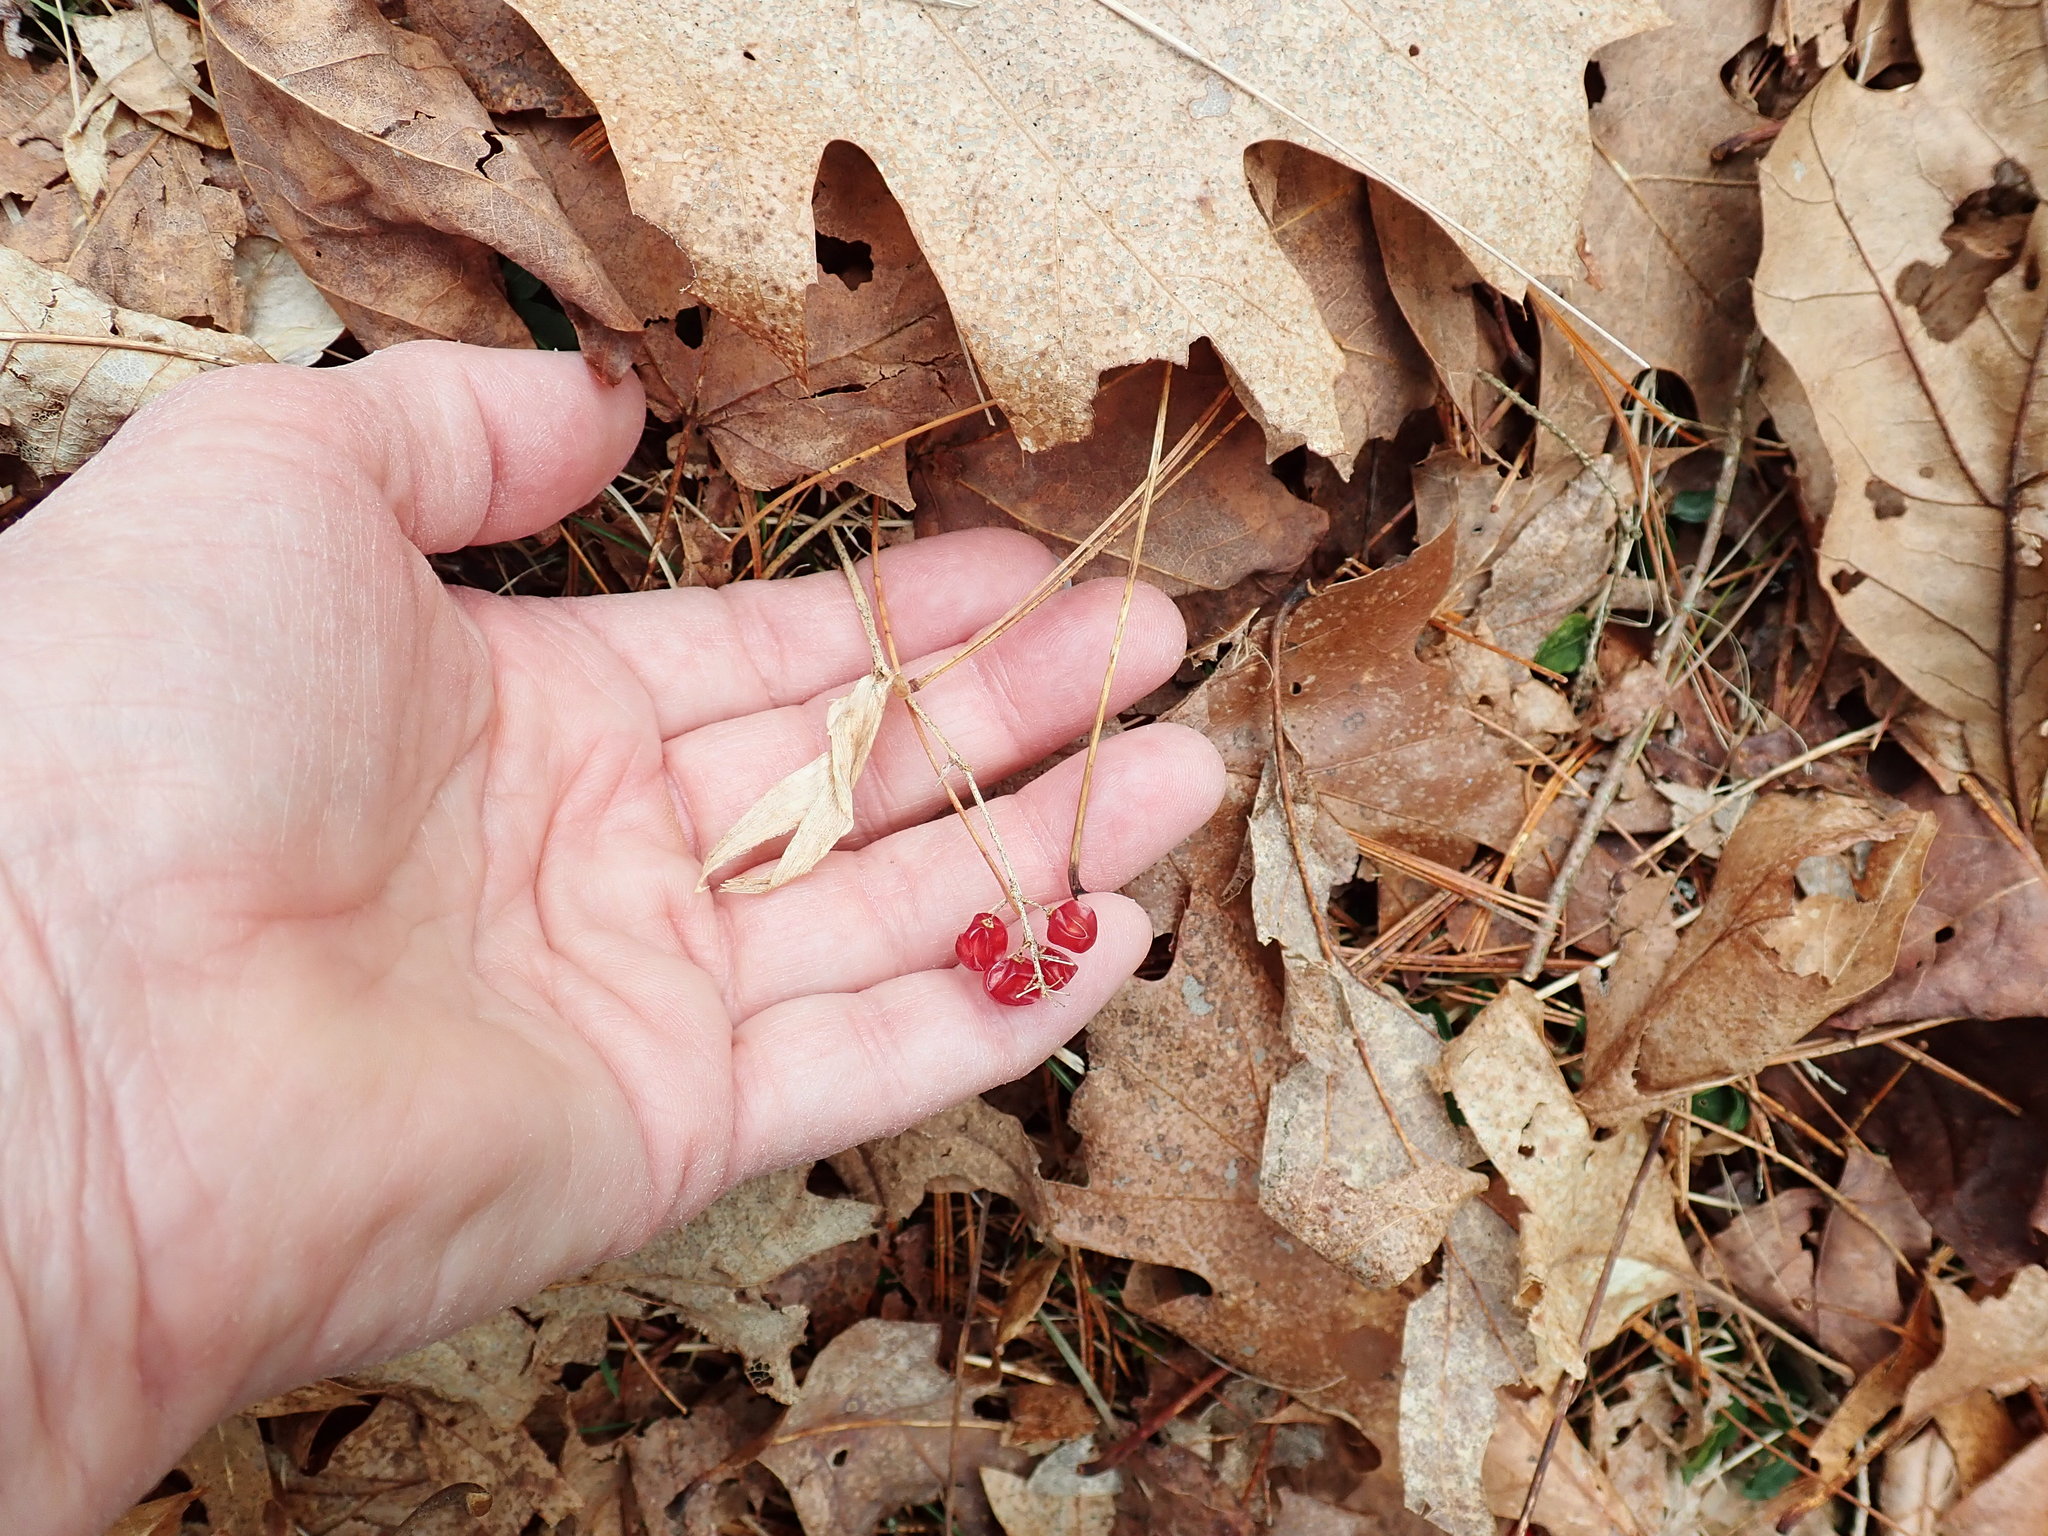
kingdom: Plantae
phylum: Tracheophyta
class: Liliopsida
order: Asparagales
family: Asparagaceae
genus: Maianthemum
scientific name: Maianthemum canadense
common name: False lily-of-the-valley
